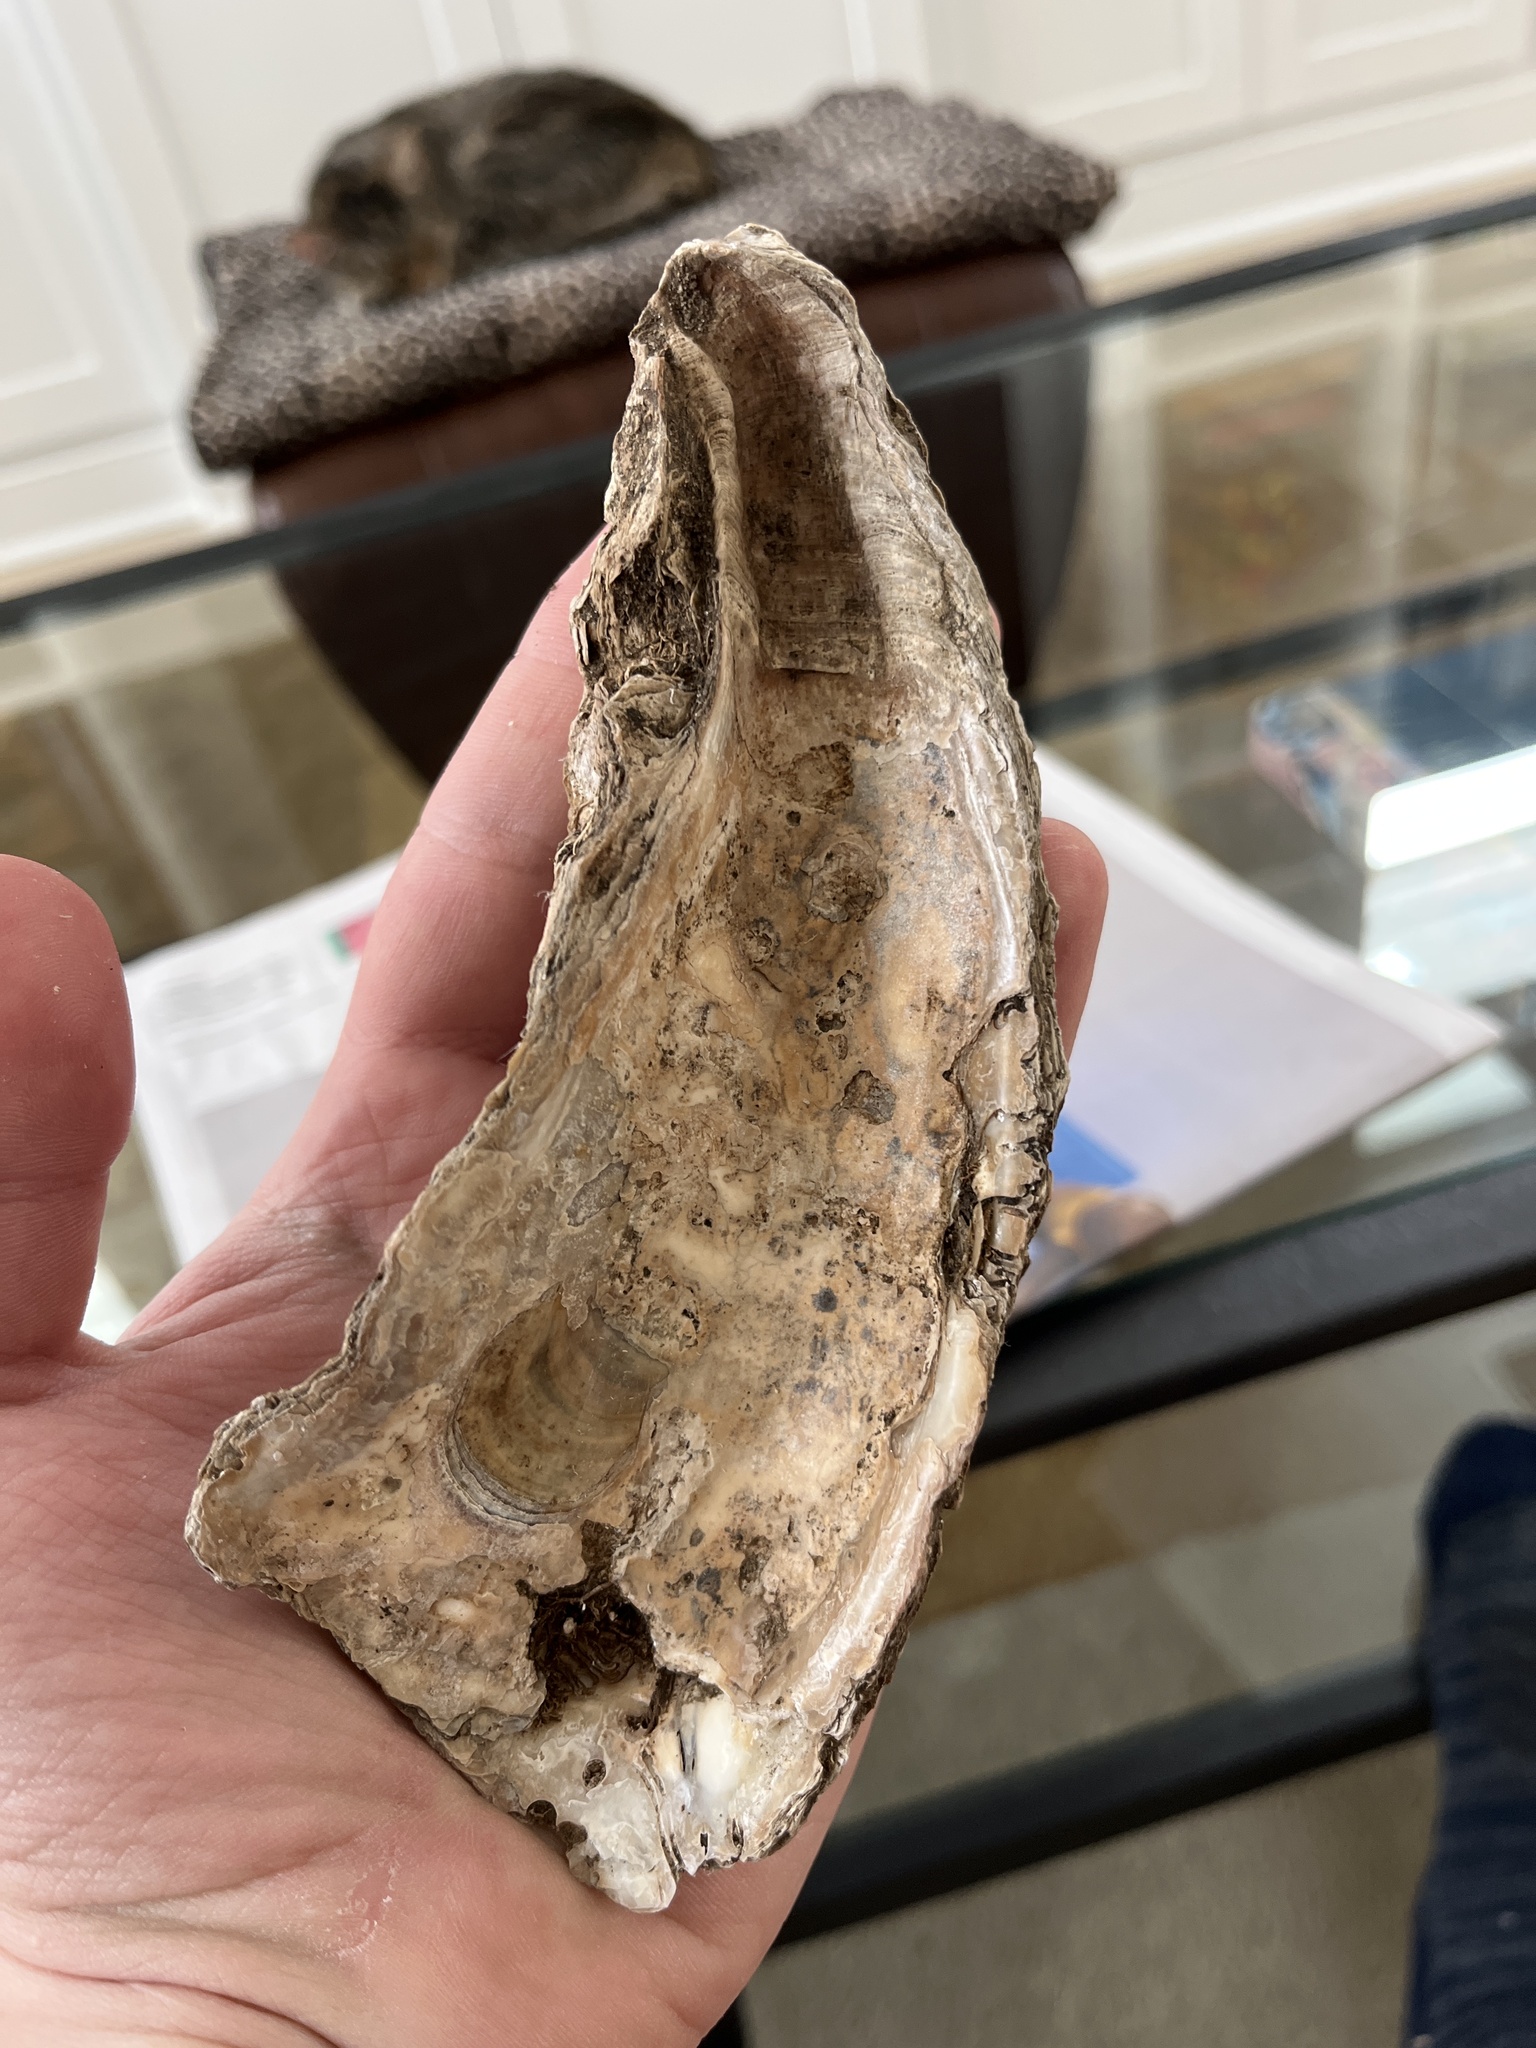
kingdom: Animalia
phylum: Mollusca
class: Bivalvia
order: Ostreida
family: Ostreidae
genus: Crassostrea
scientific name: Crassostrea virginica
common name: American oyster
